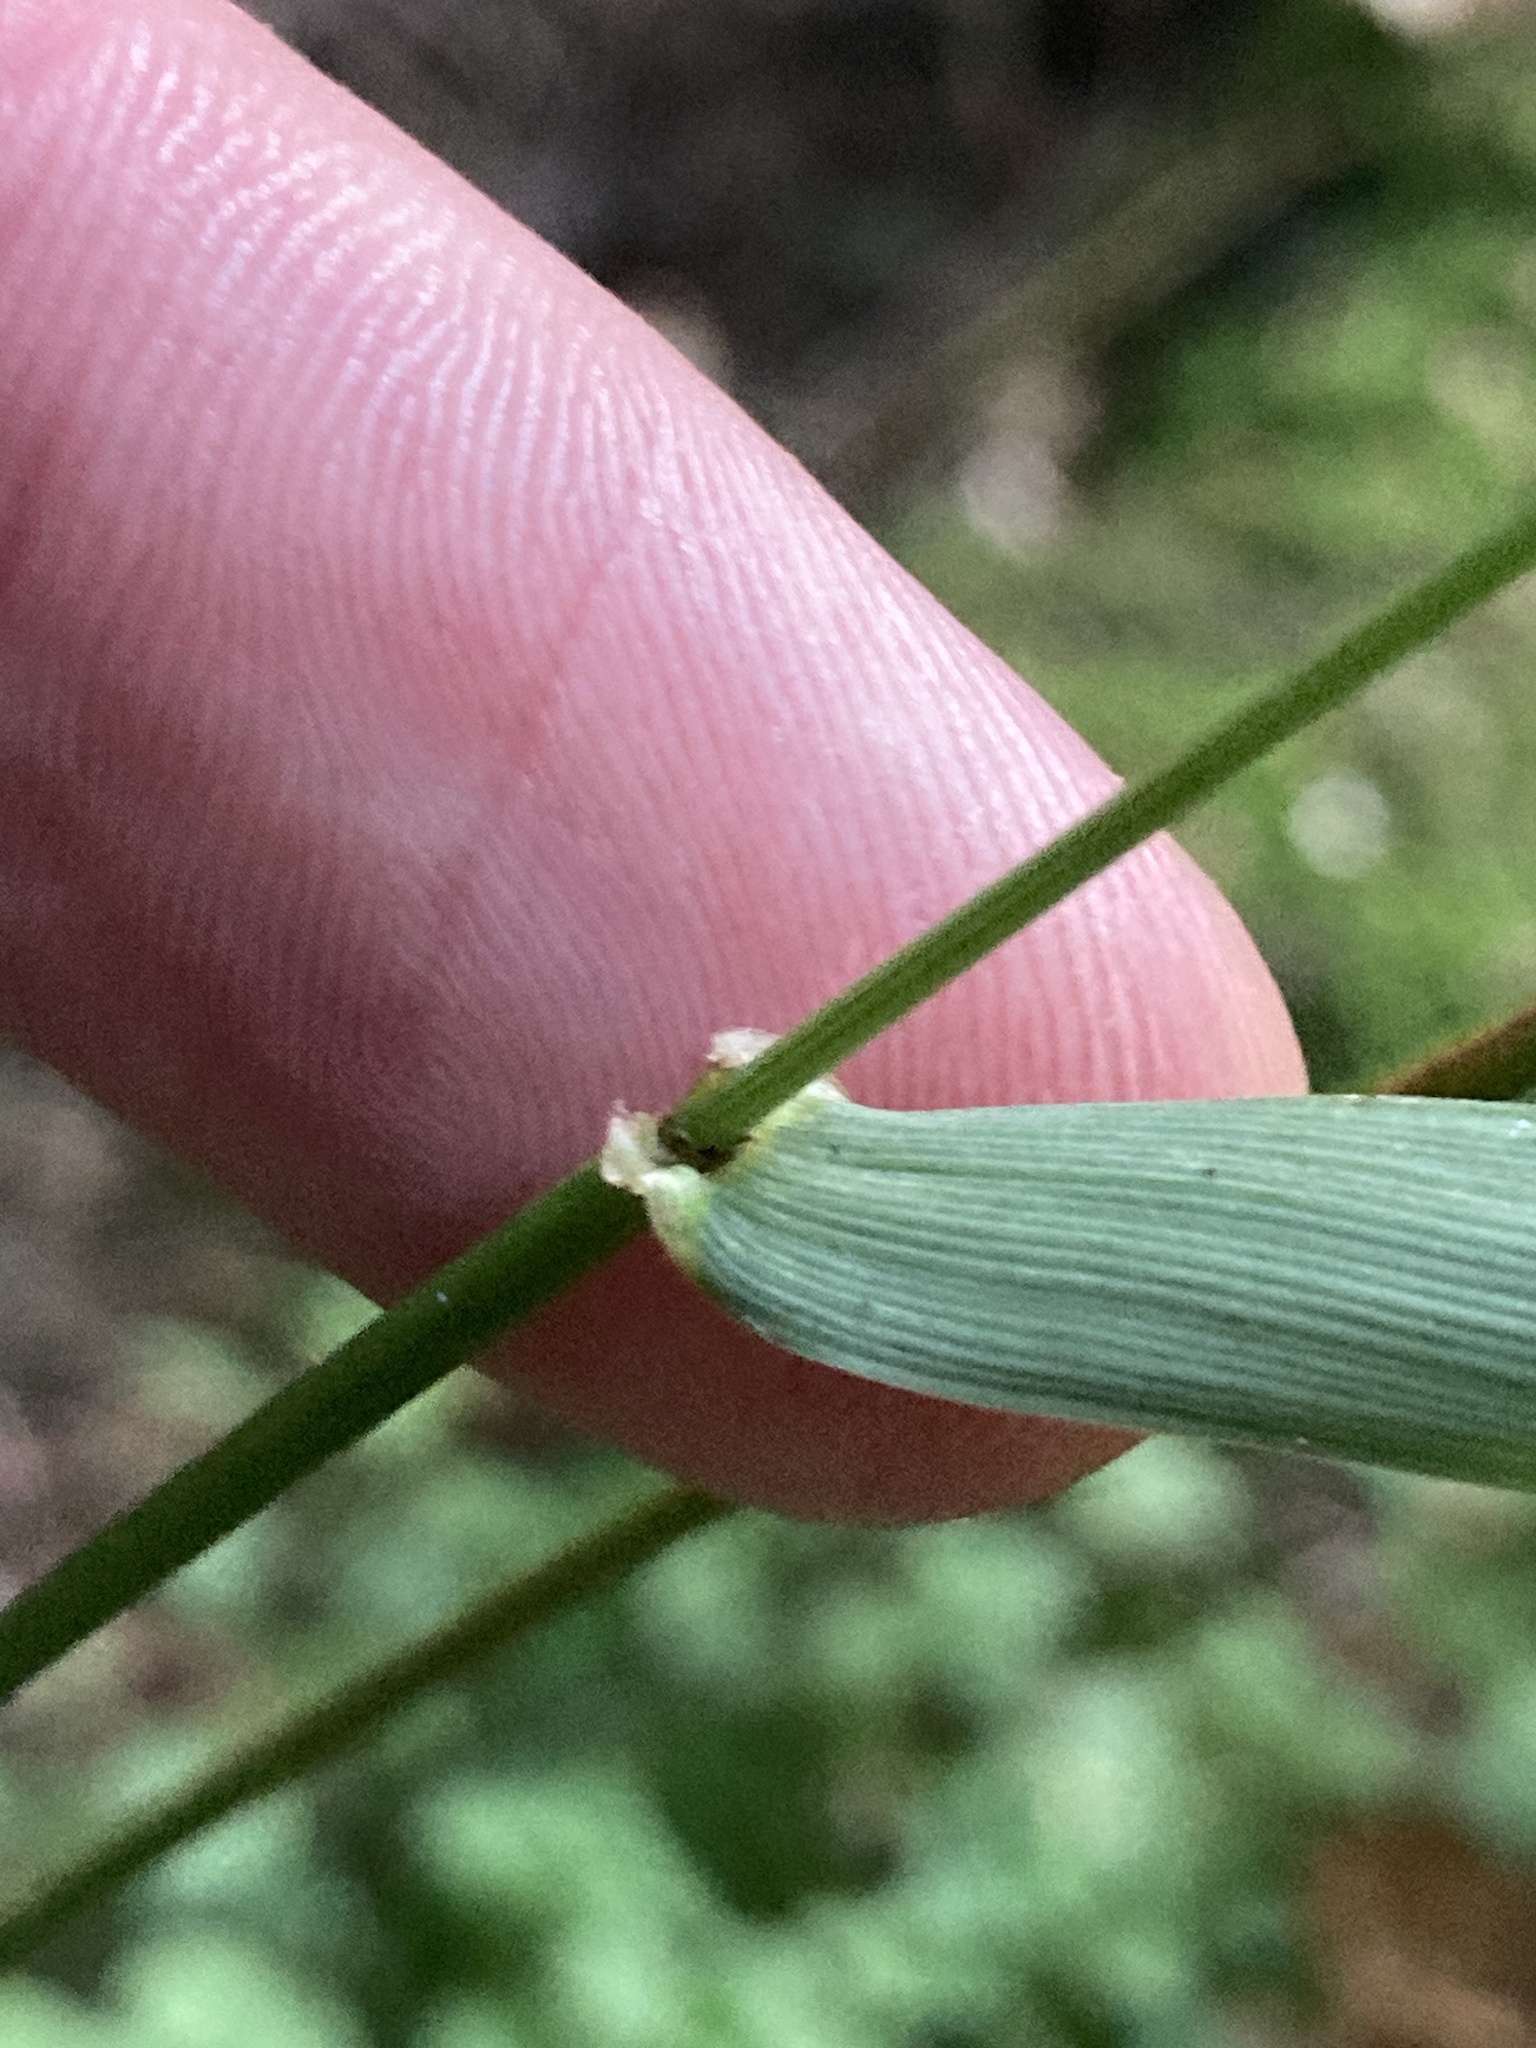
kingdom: Plantae
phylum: Tracheophyta
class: Liliopsida
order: Poales
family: Poaceae
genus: Lolium
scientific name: Lolium giganteum
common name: Giant fescue
